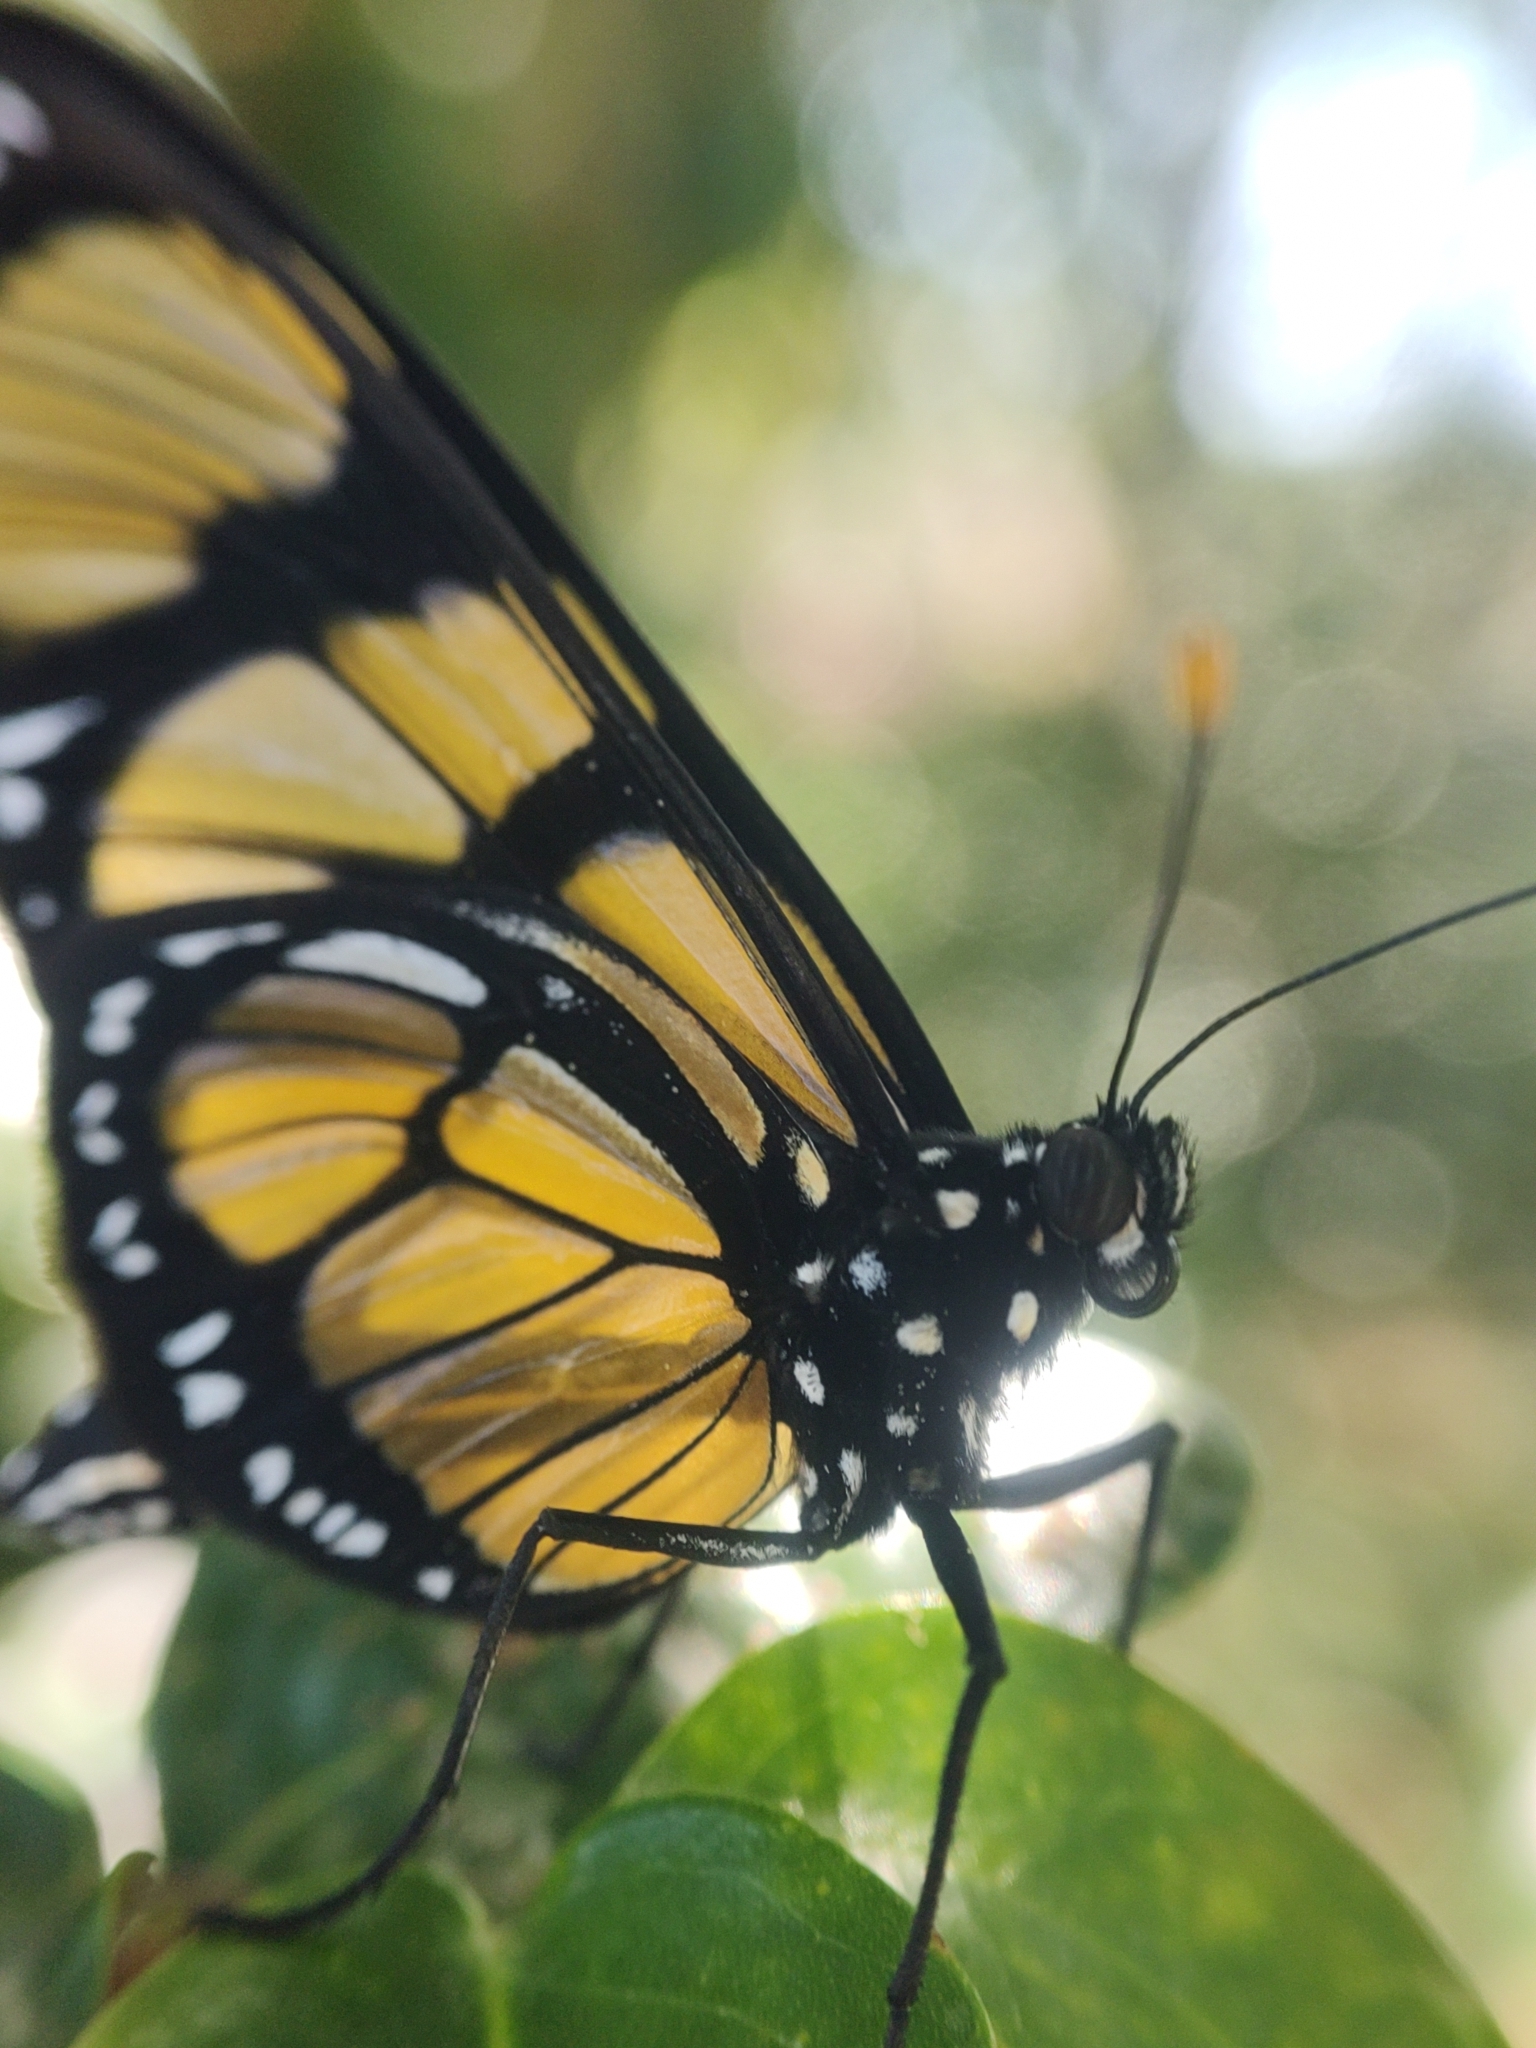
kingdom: Animalia
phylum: Arthropoda
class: Insecta
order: Lepidoptera
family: Nymphalidae
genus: Methona
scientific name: Methona themisto
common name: Themisto amberwing
